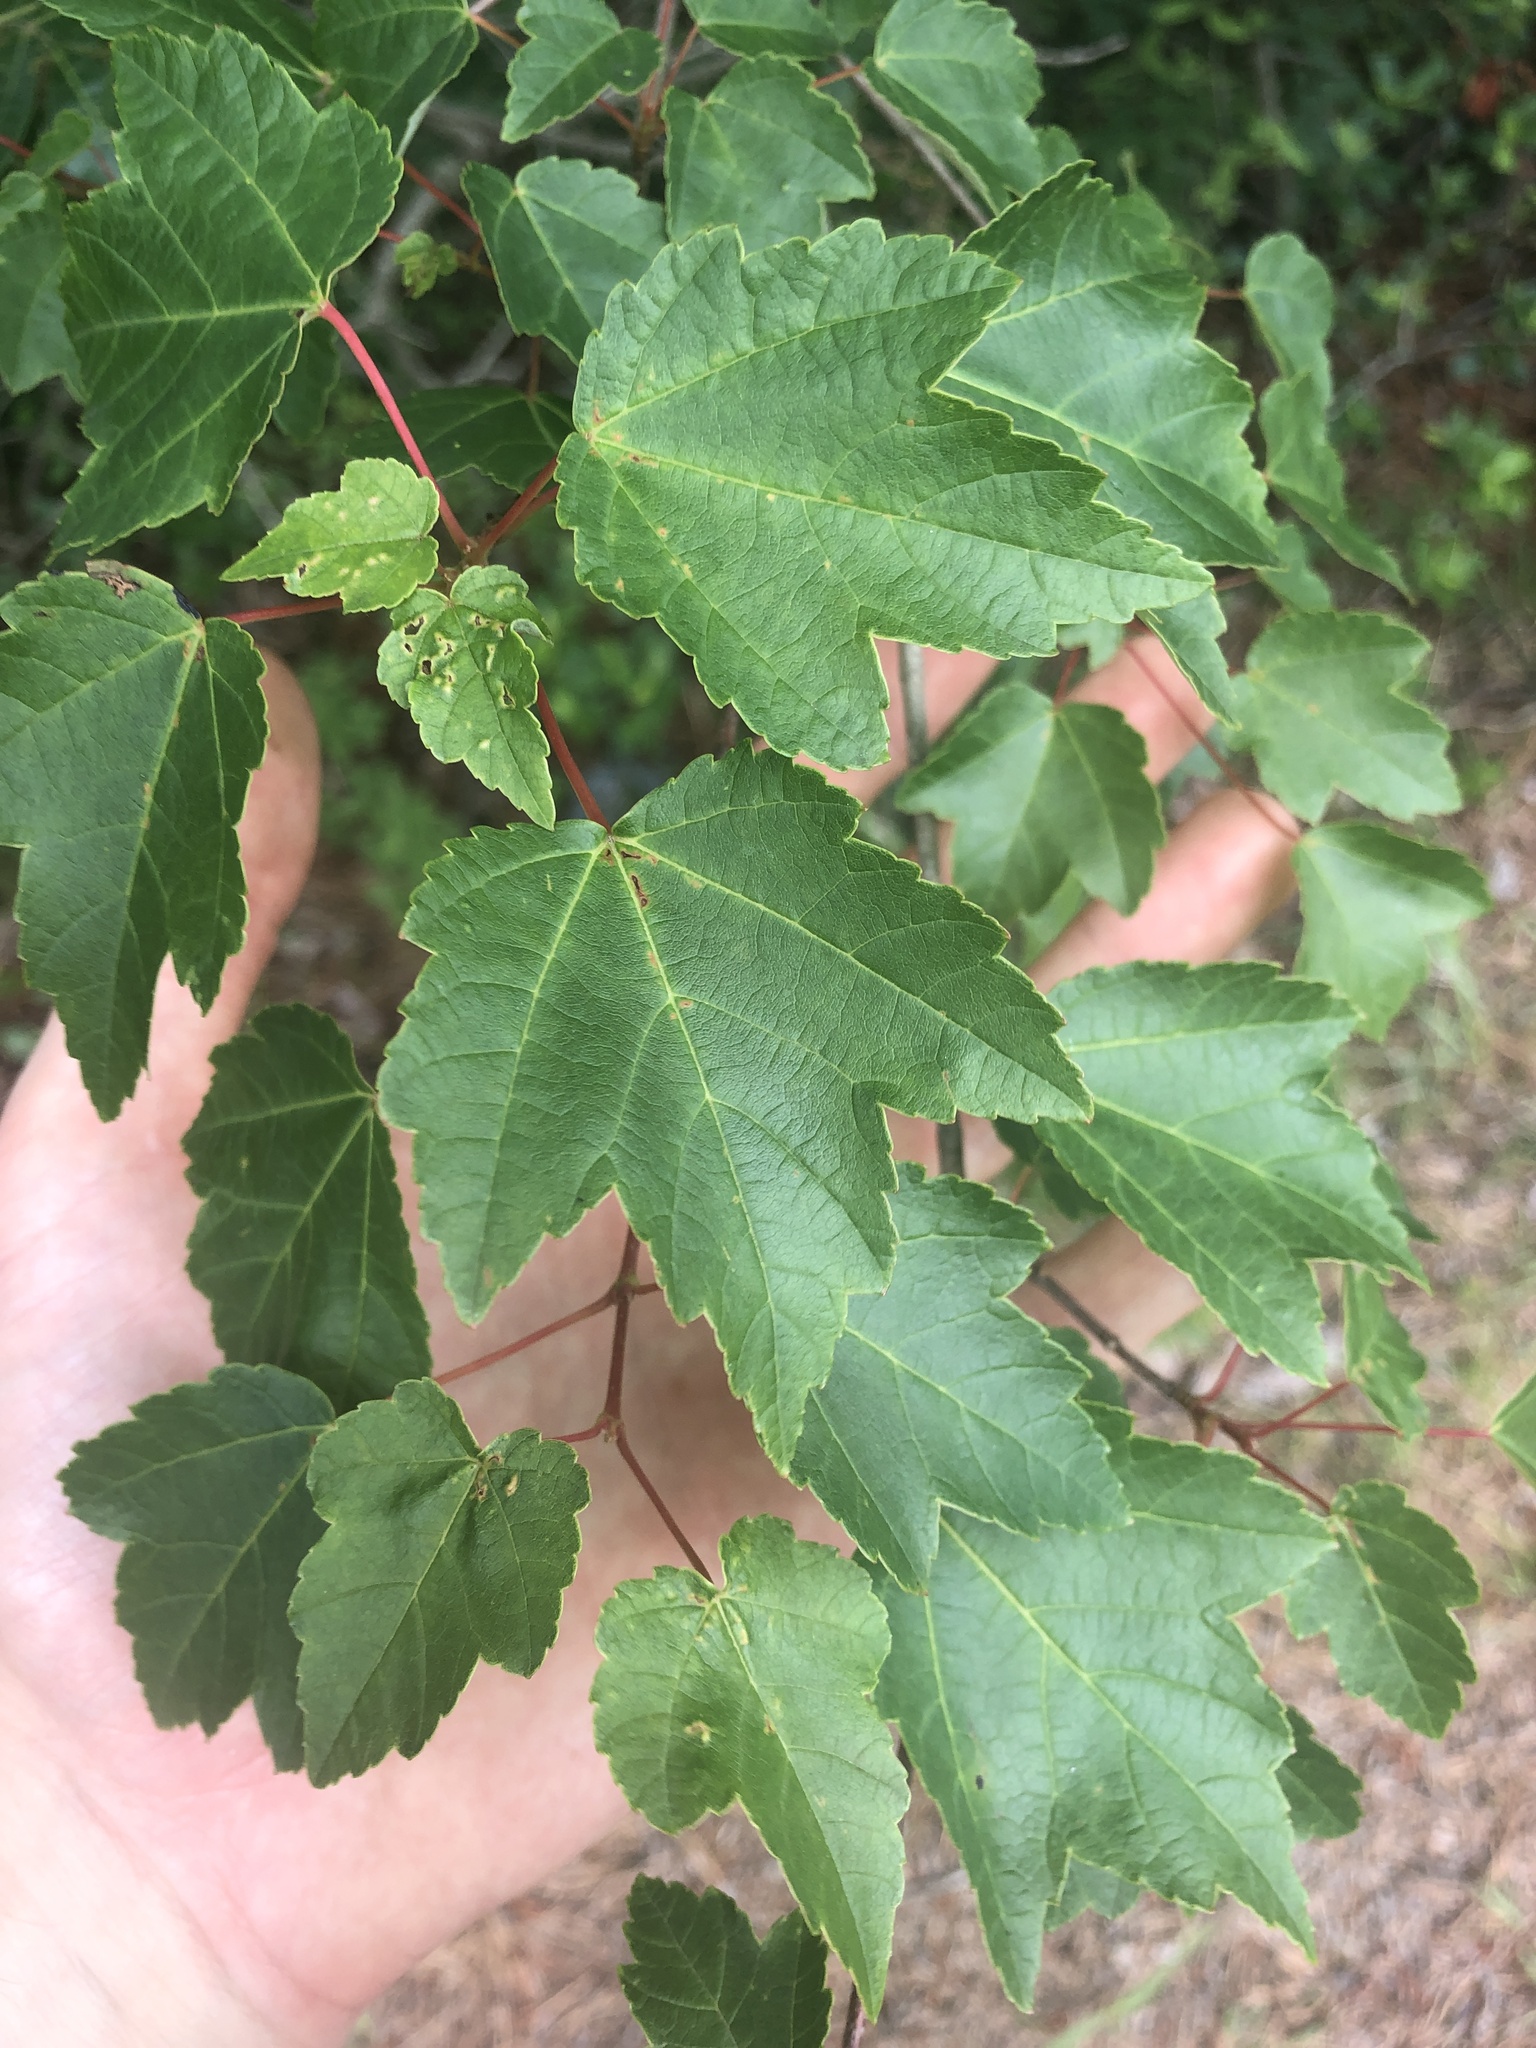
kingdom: Plantae
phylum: Tracheophyta
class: Magnoliopsida
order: Sapindales
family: Sapindaceae
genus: Acer
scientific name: Acer rubrum
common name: Red maple
